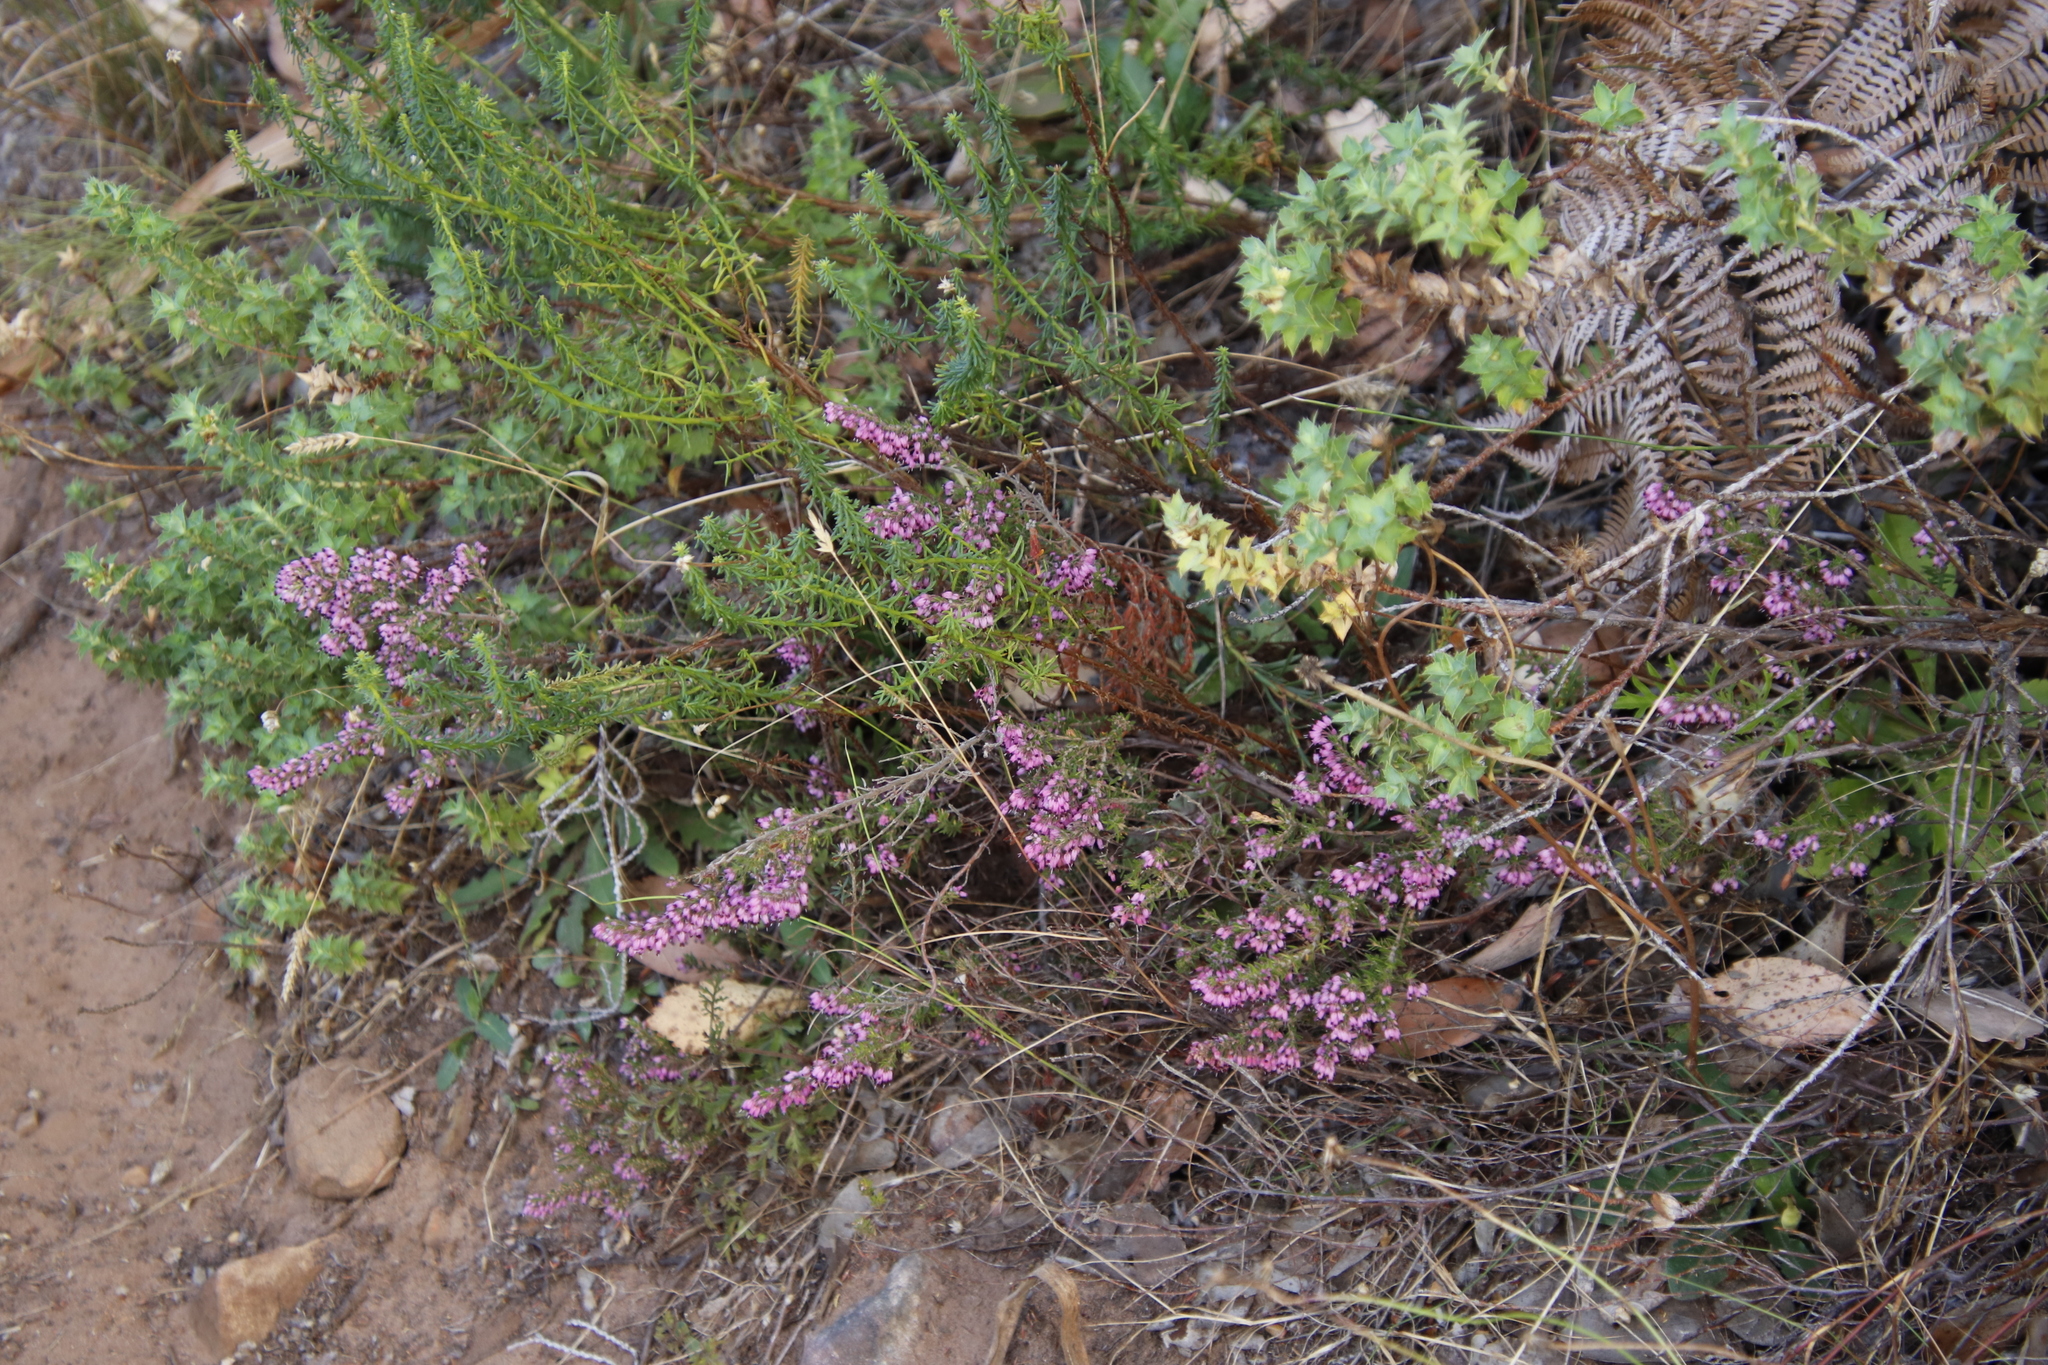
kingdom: Plantae
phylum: Tracheophyta
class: Magnoliopsida
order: Ericales
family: Ericaceae
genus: Erica
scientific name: Erica nudiflora
